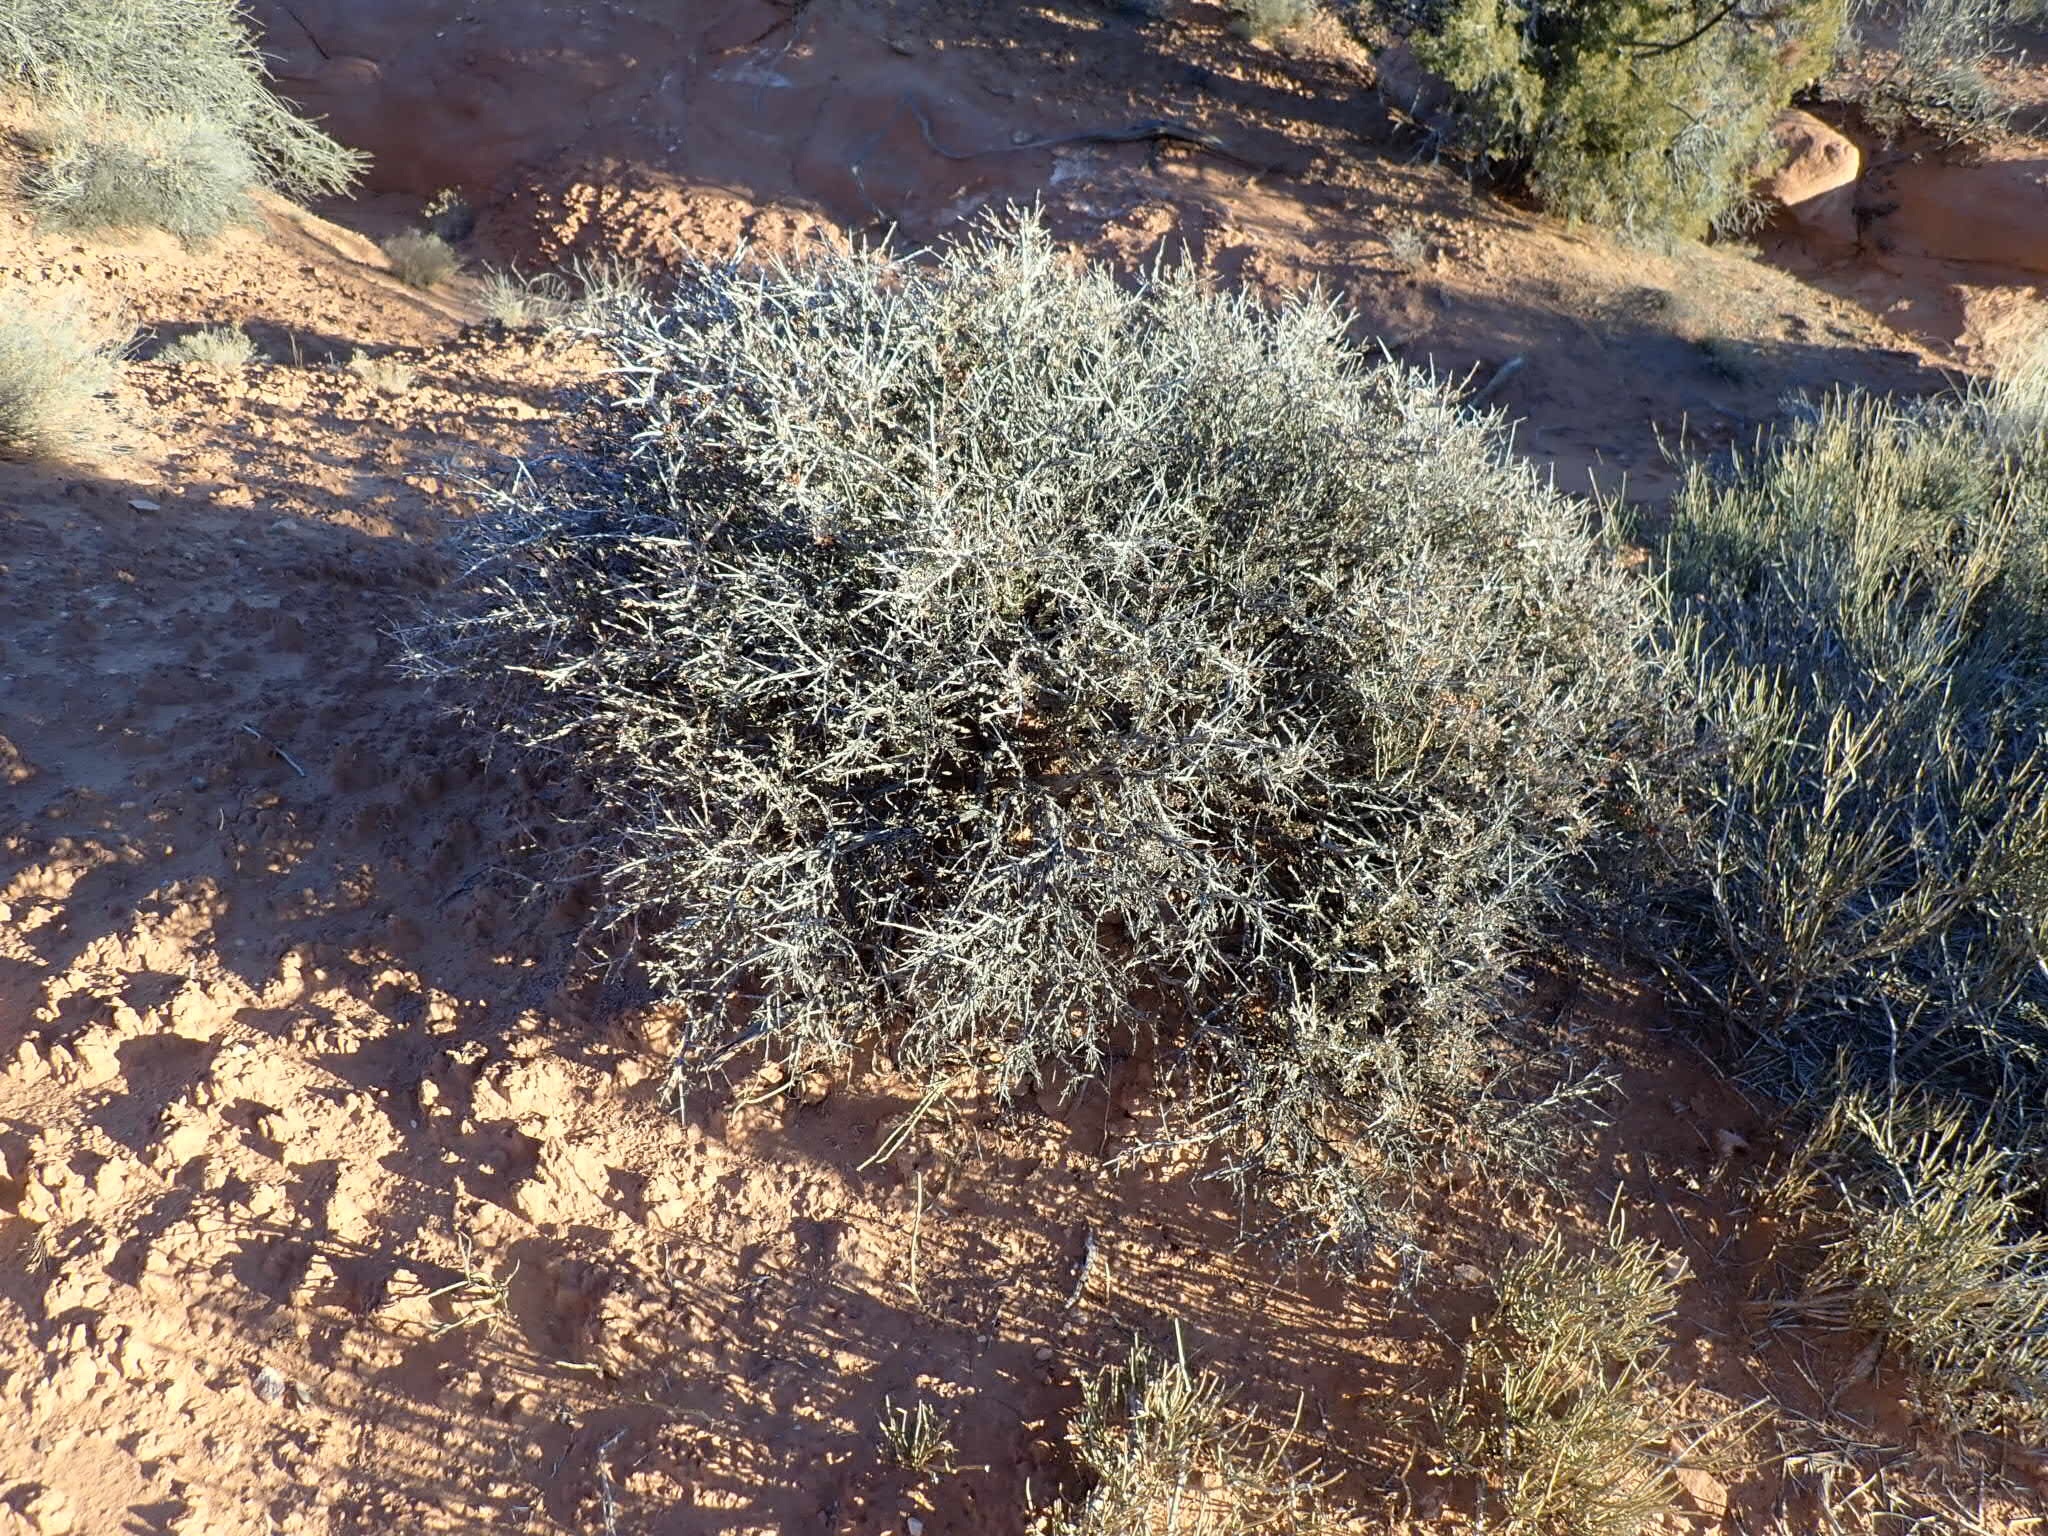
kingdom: Plantae
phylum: Tracheophyta
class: Magnoliopsida
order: Rosales
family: Rosaceae
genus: Coleogyne
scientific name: Coleogyne ramosissima
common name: Blackbrush
